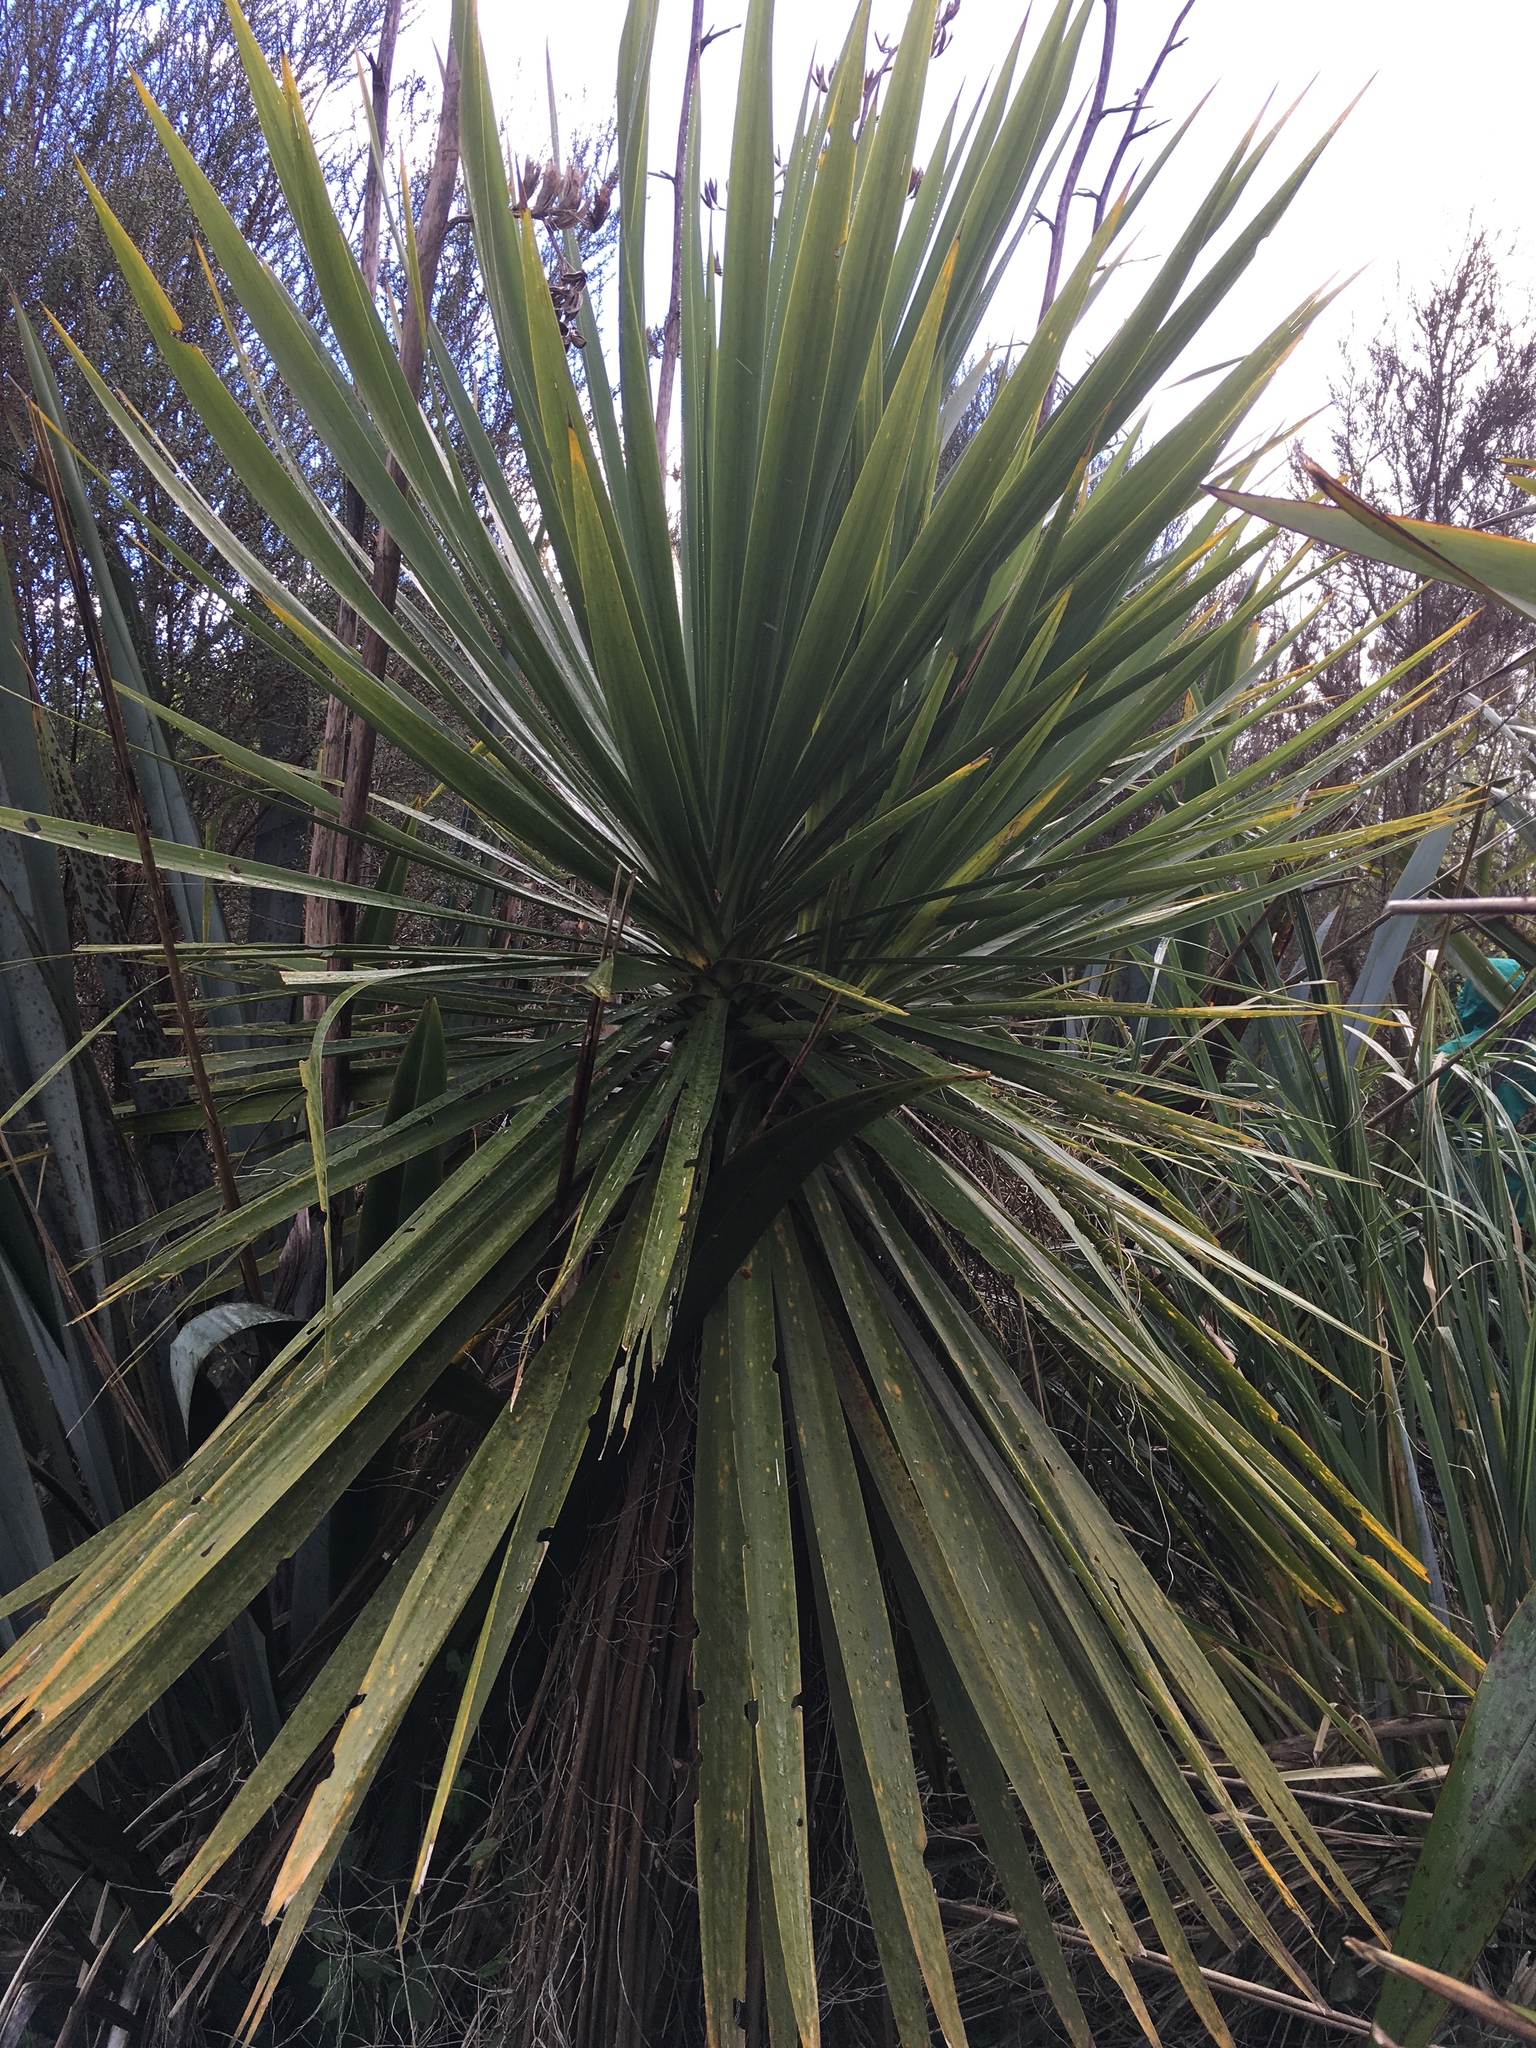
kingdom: Plantae
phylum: Tracheophyta
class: Liliopsida
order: Asparagales
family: Asparagaceae
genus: Cordyline
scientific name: Cordyline australis
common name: Cabbage-palm
